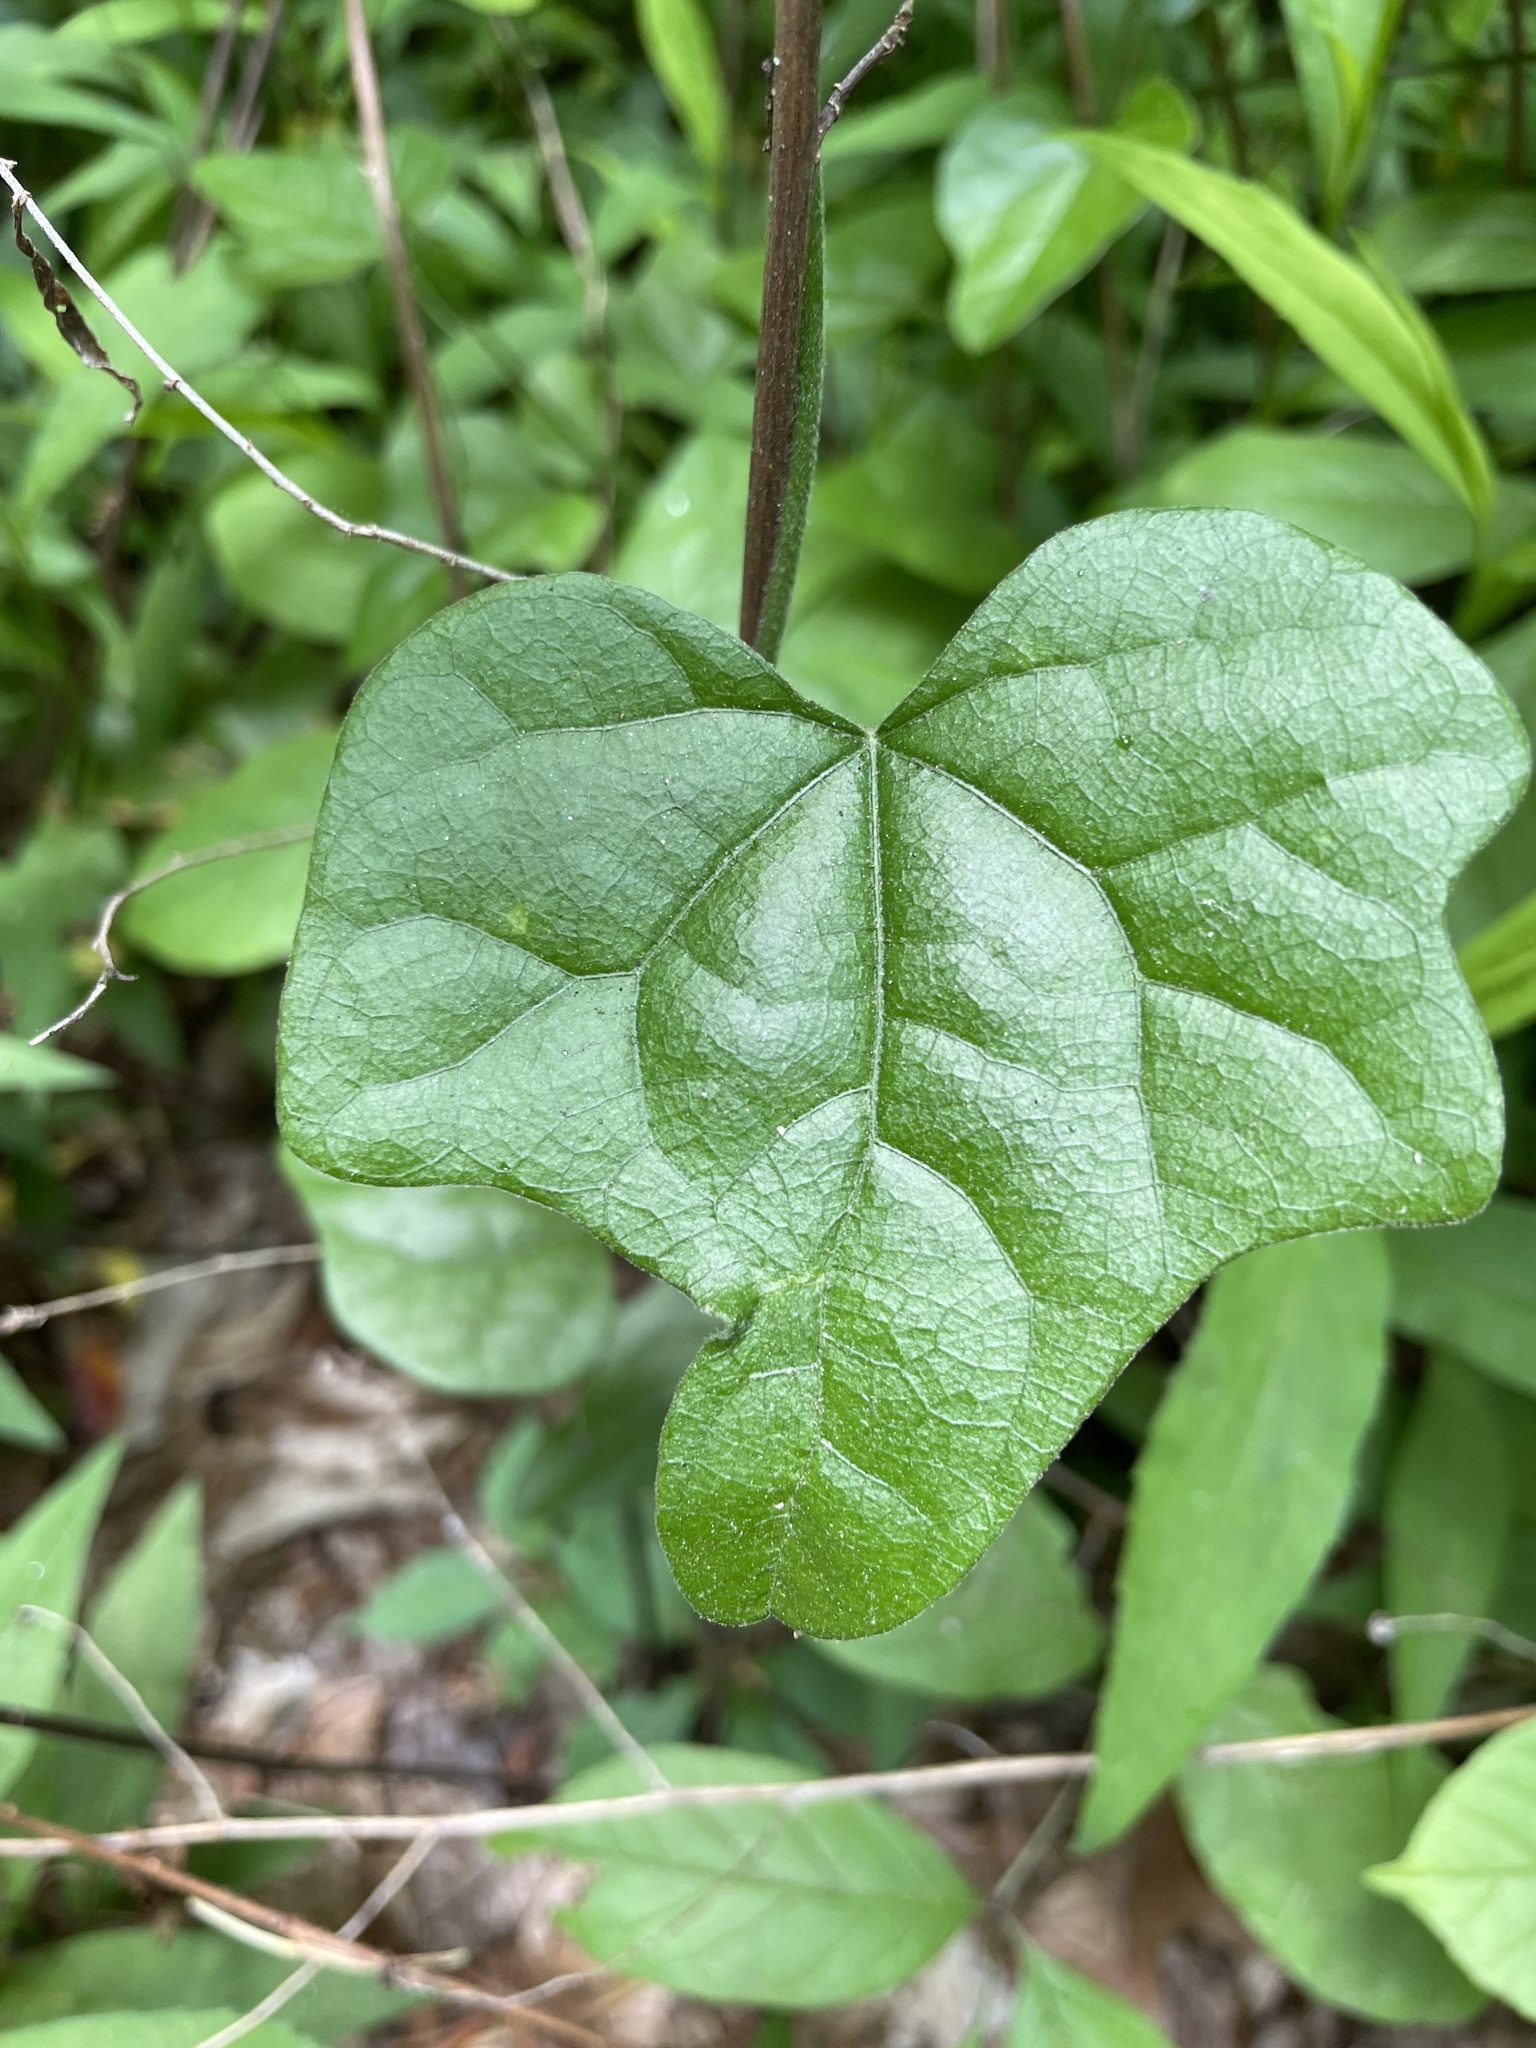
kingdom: Plantae
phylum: Tracheophyta
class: Magnoliopsida
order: Ranunculales
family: Menispermaceae
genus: Menispermum
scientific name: Menispermum canadense
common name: Moonseed
